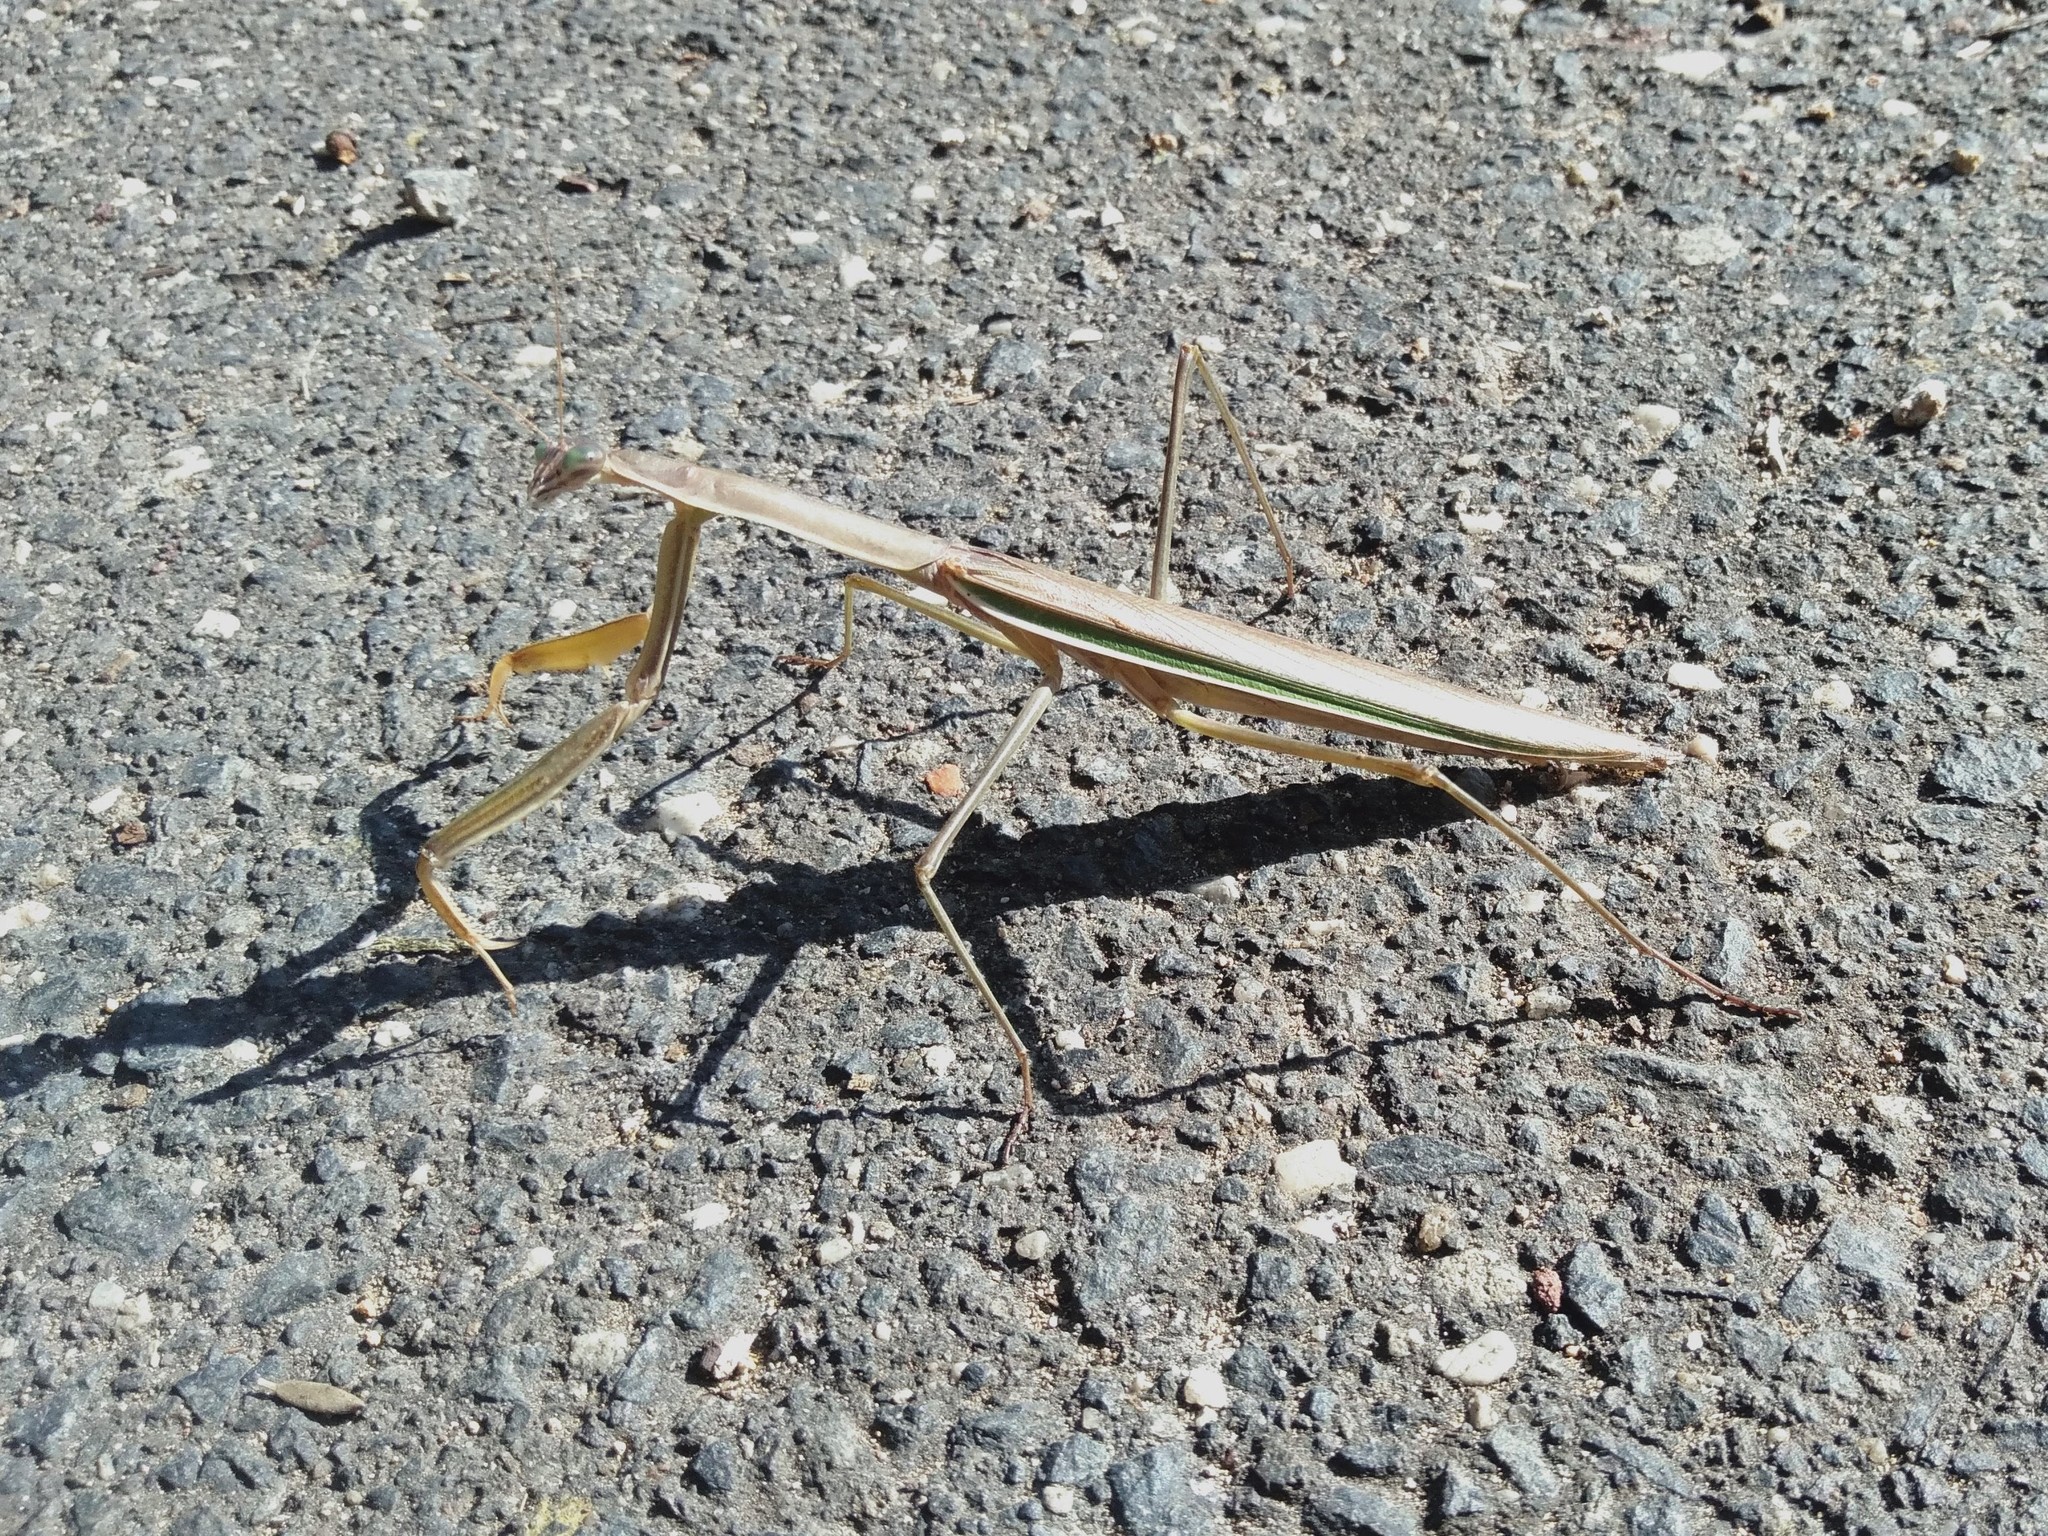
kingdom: Animalia
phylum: Arthropoda
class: Insecta
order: Mantodea
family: Mantidae
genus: Tenodera
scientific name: Tenodera australasiae
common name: Purple-winged mantis
